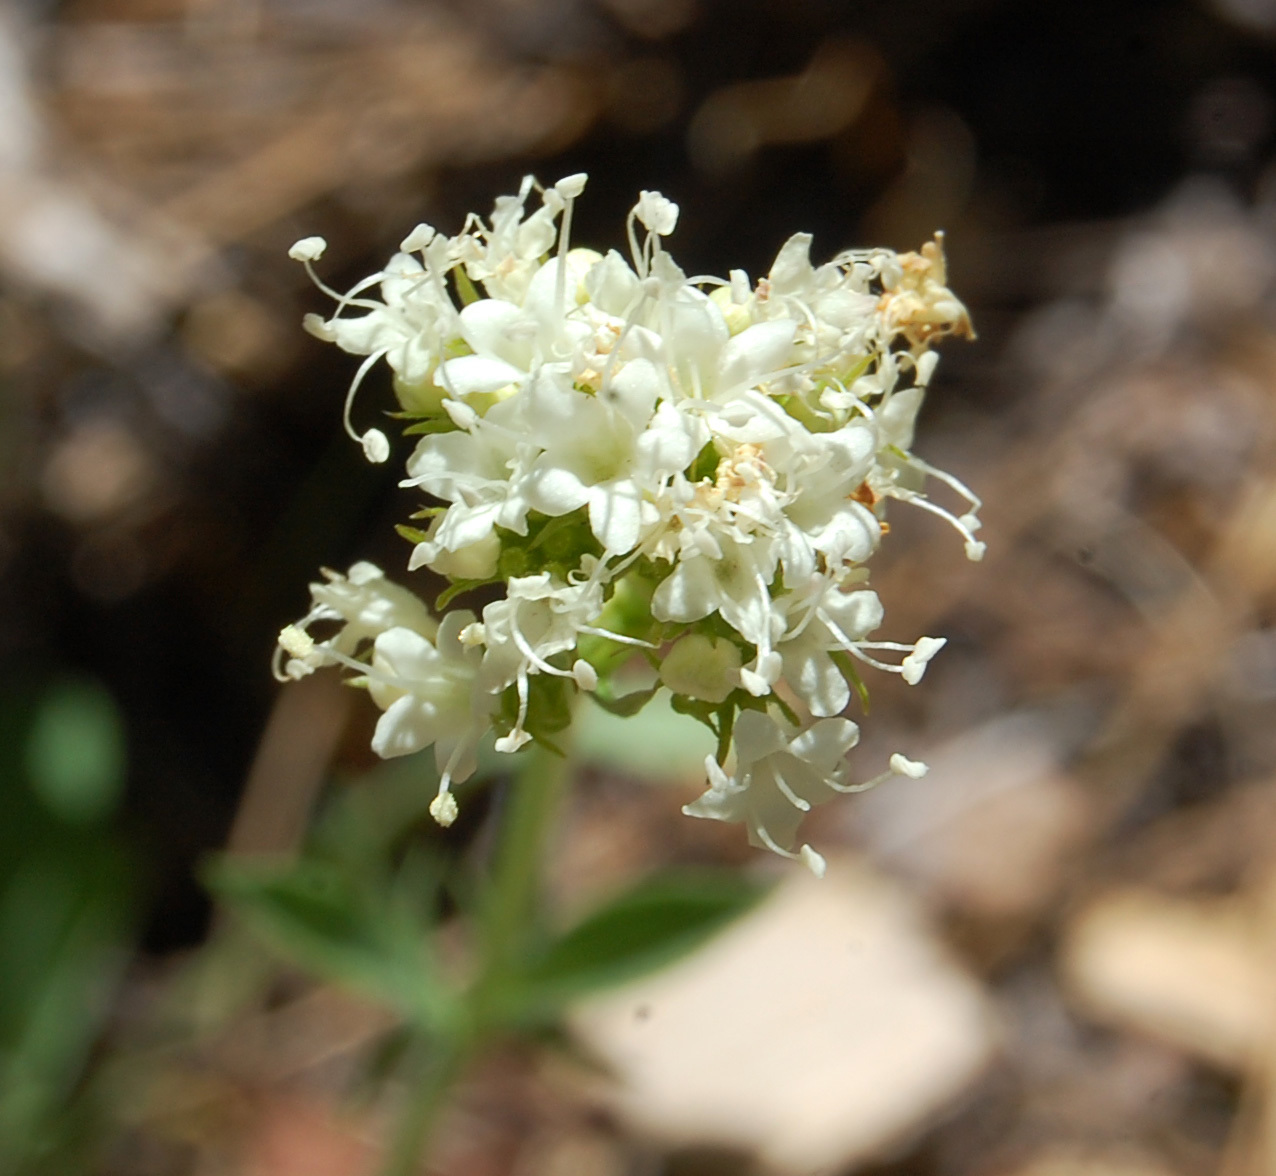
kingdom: Plantae
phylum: Tracheophyta
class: Magnoliopsida
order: Dipsacales
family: Caprifoliaceae
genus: Valeriana
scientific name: Valeriana californica
